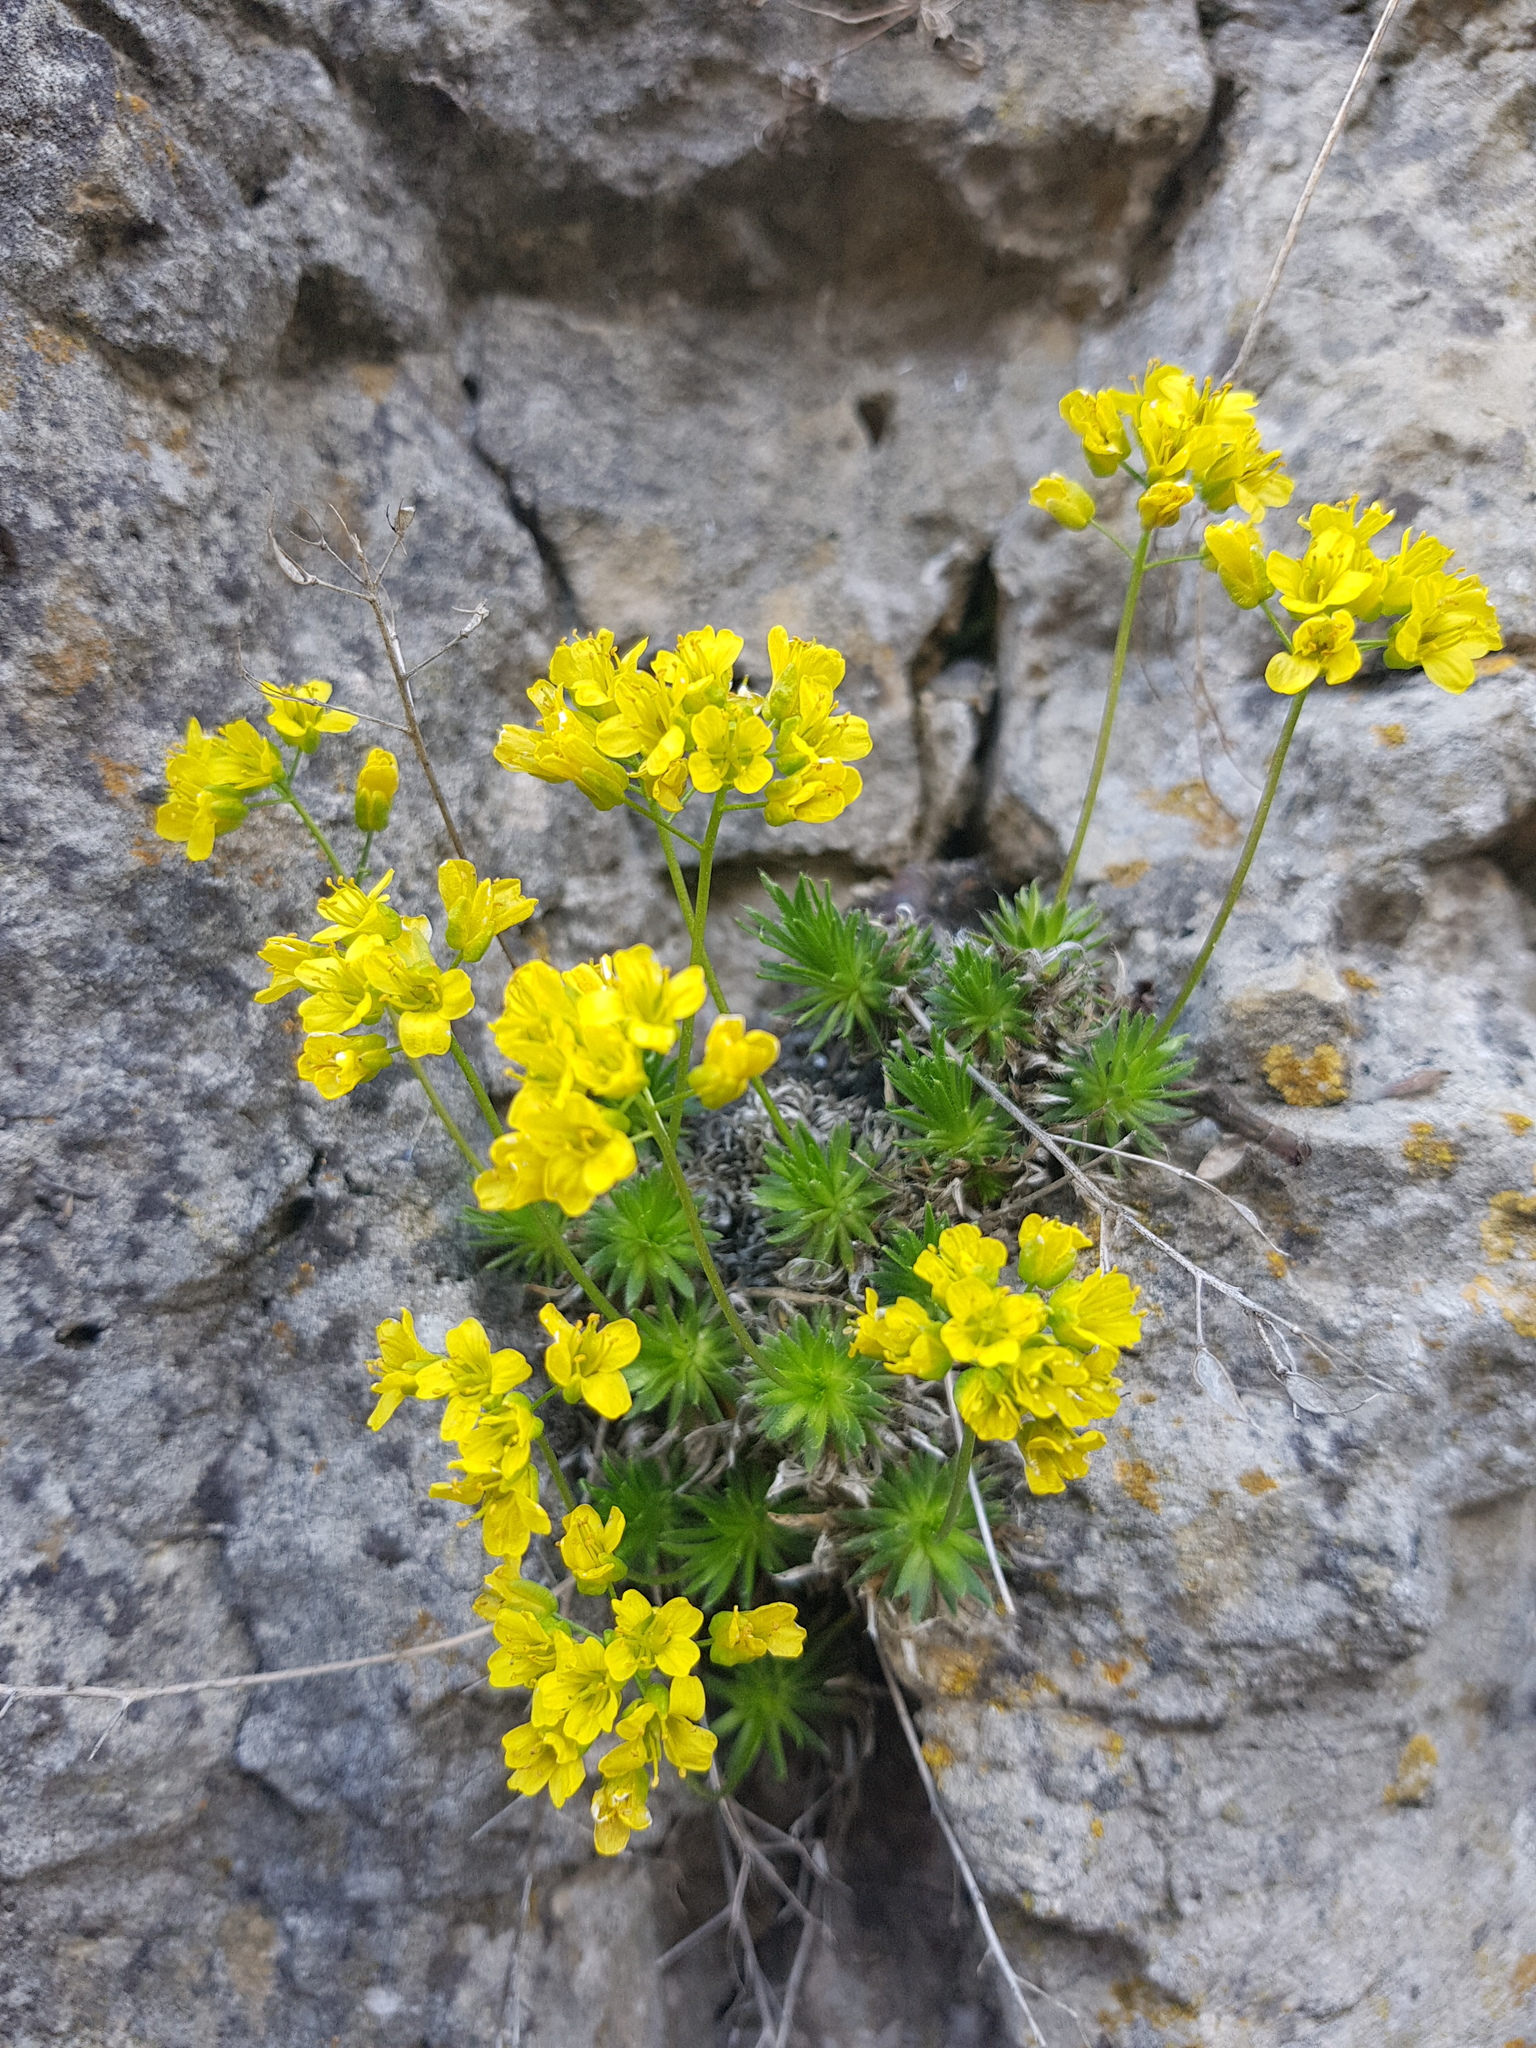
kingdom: Plantae
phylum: Tracheophyta
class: Magnoliopsida
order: Brassicales
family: Brassicaceae
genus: Draba
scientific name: Draba aizoides
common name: Yellow whitlowgrass
